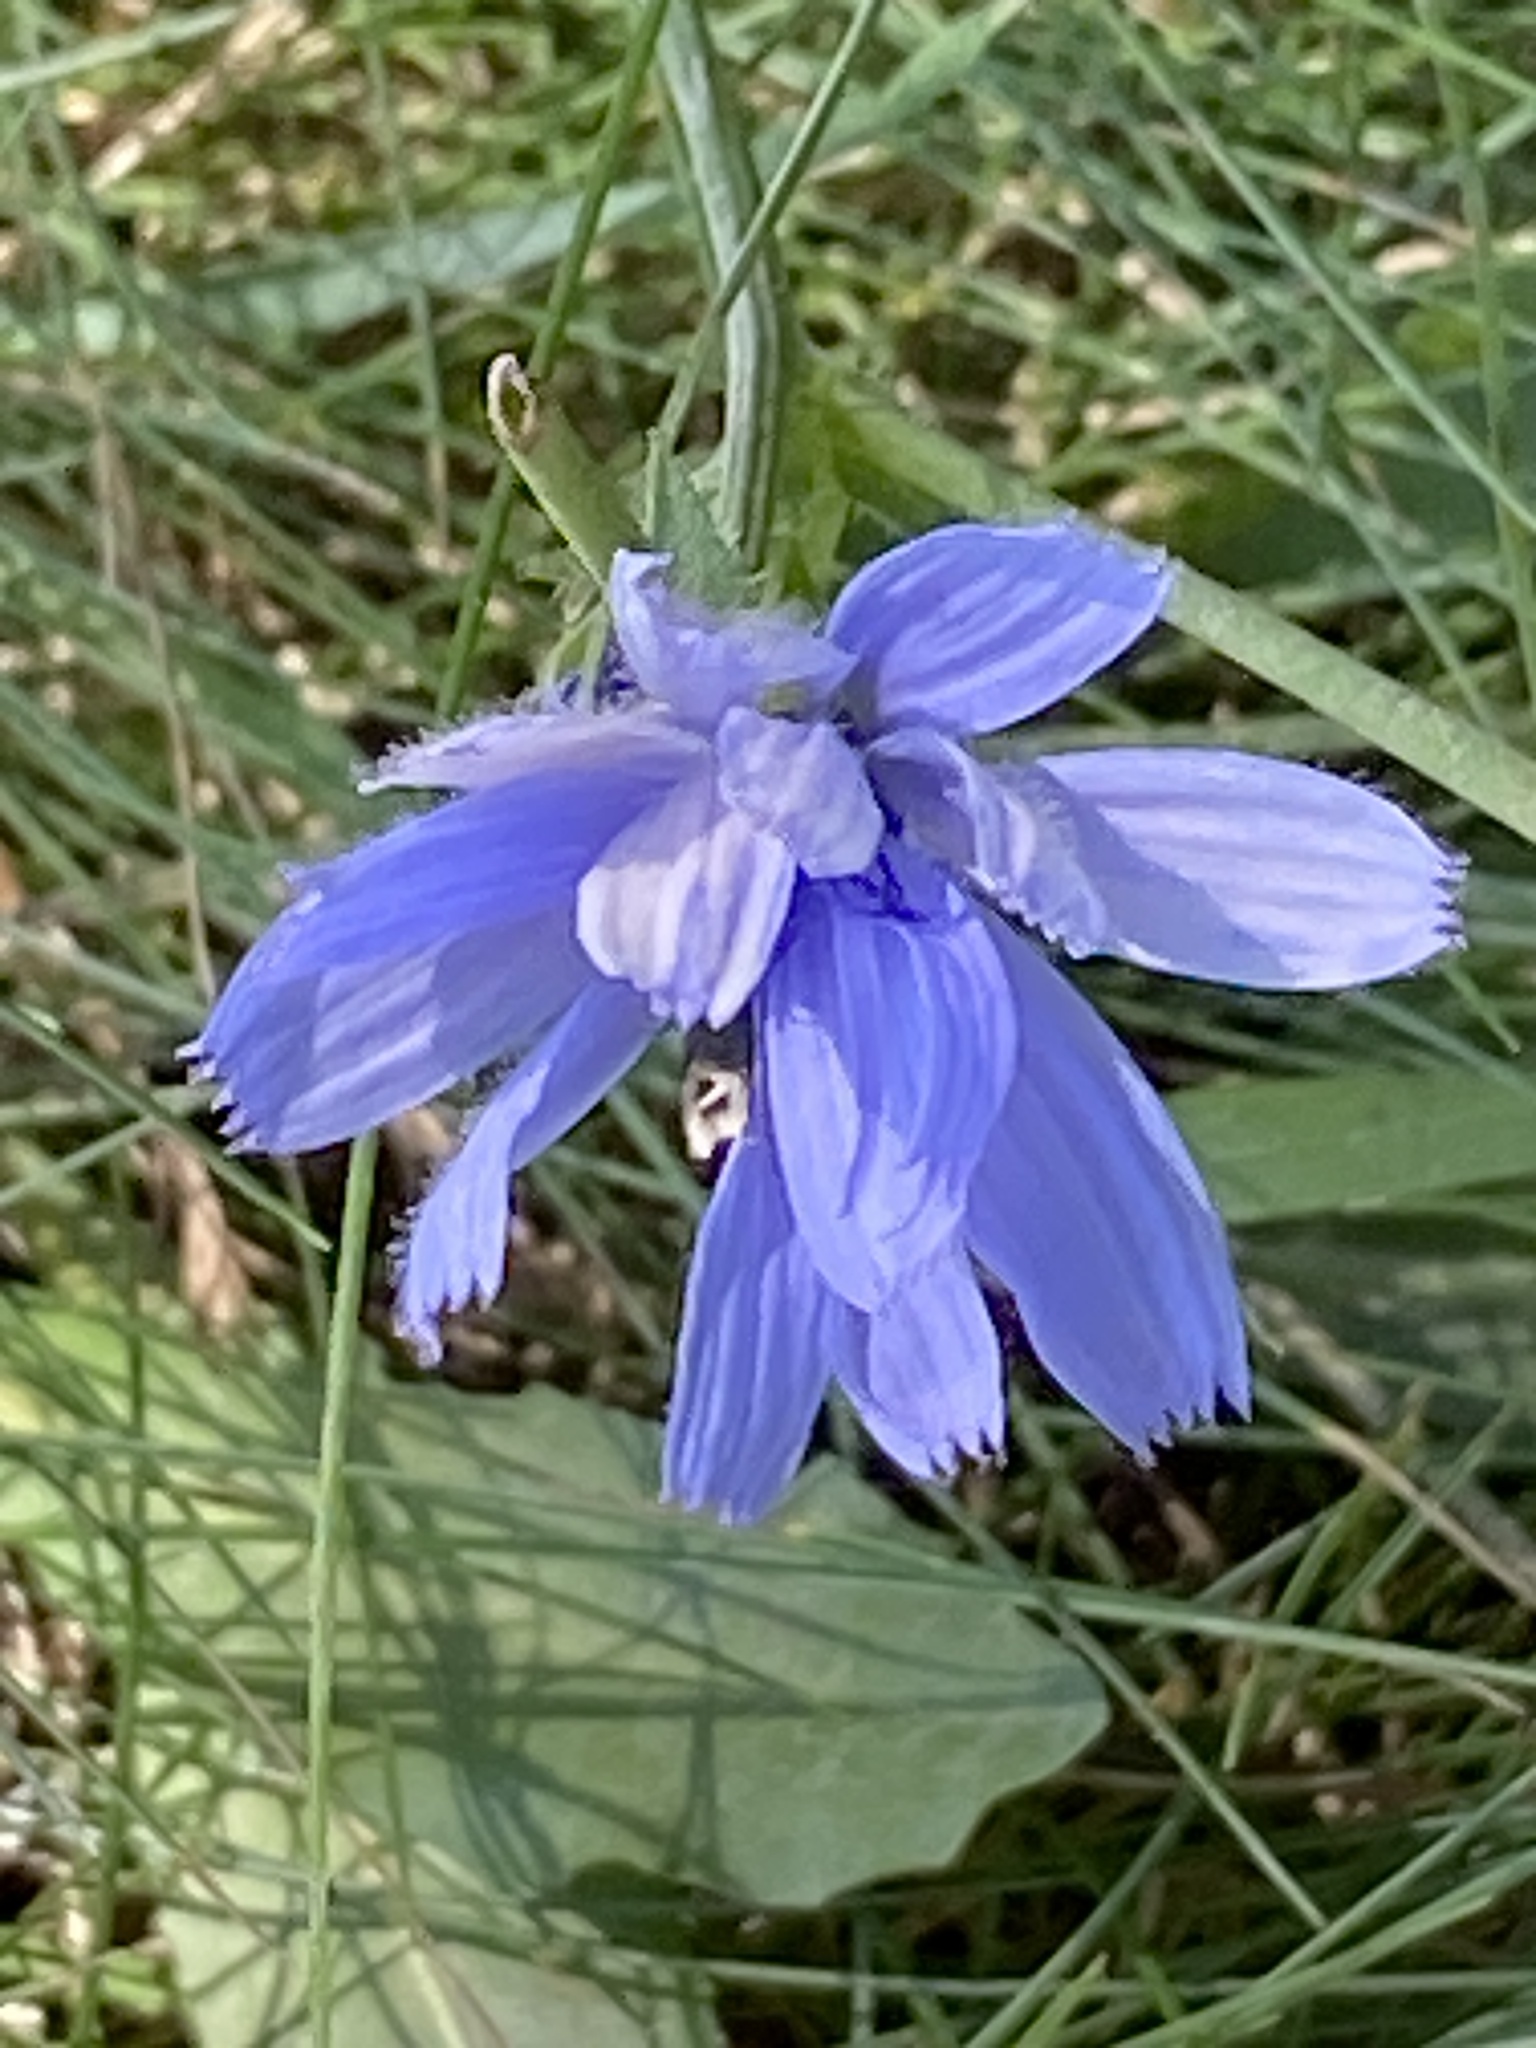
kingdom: Plantae
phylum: Tracheophyta
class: Magnoliopsida
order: Asterales
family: Asteraceae
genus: Cichorium
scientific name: Cichorium intybus
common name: Chicory
